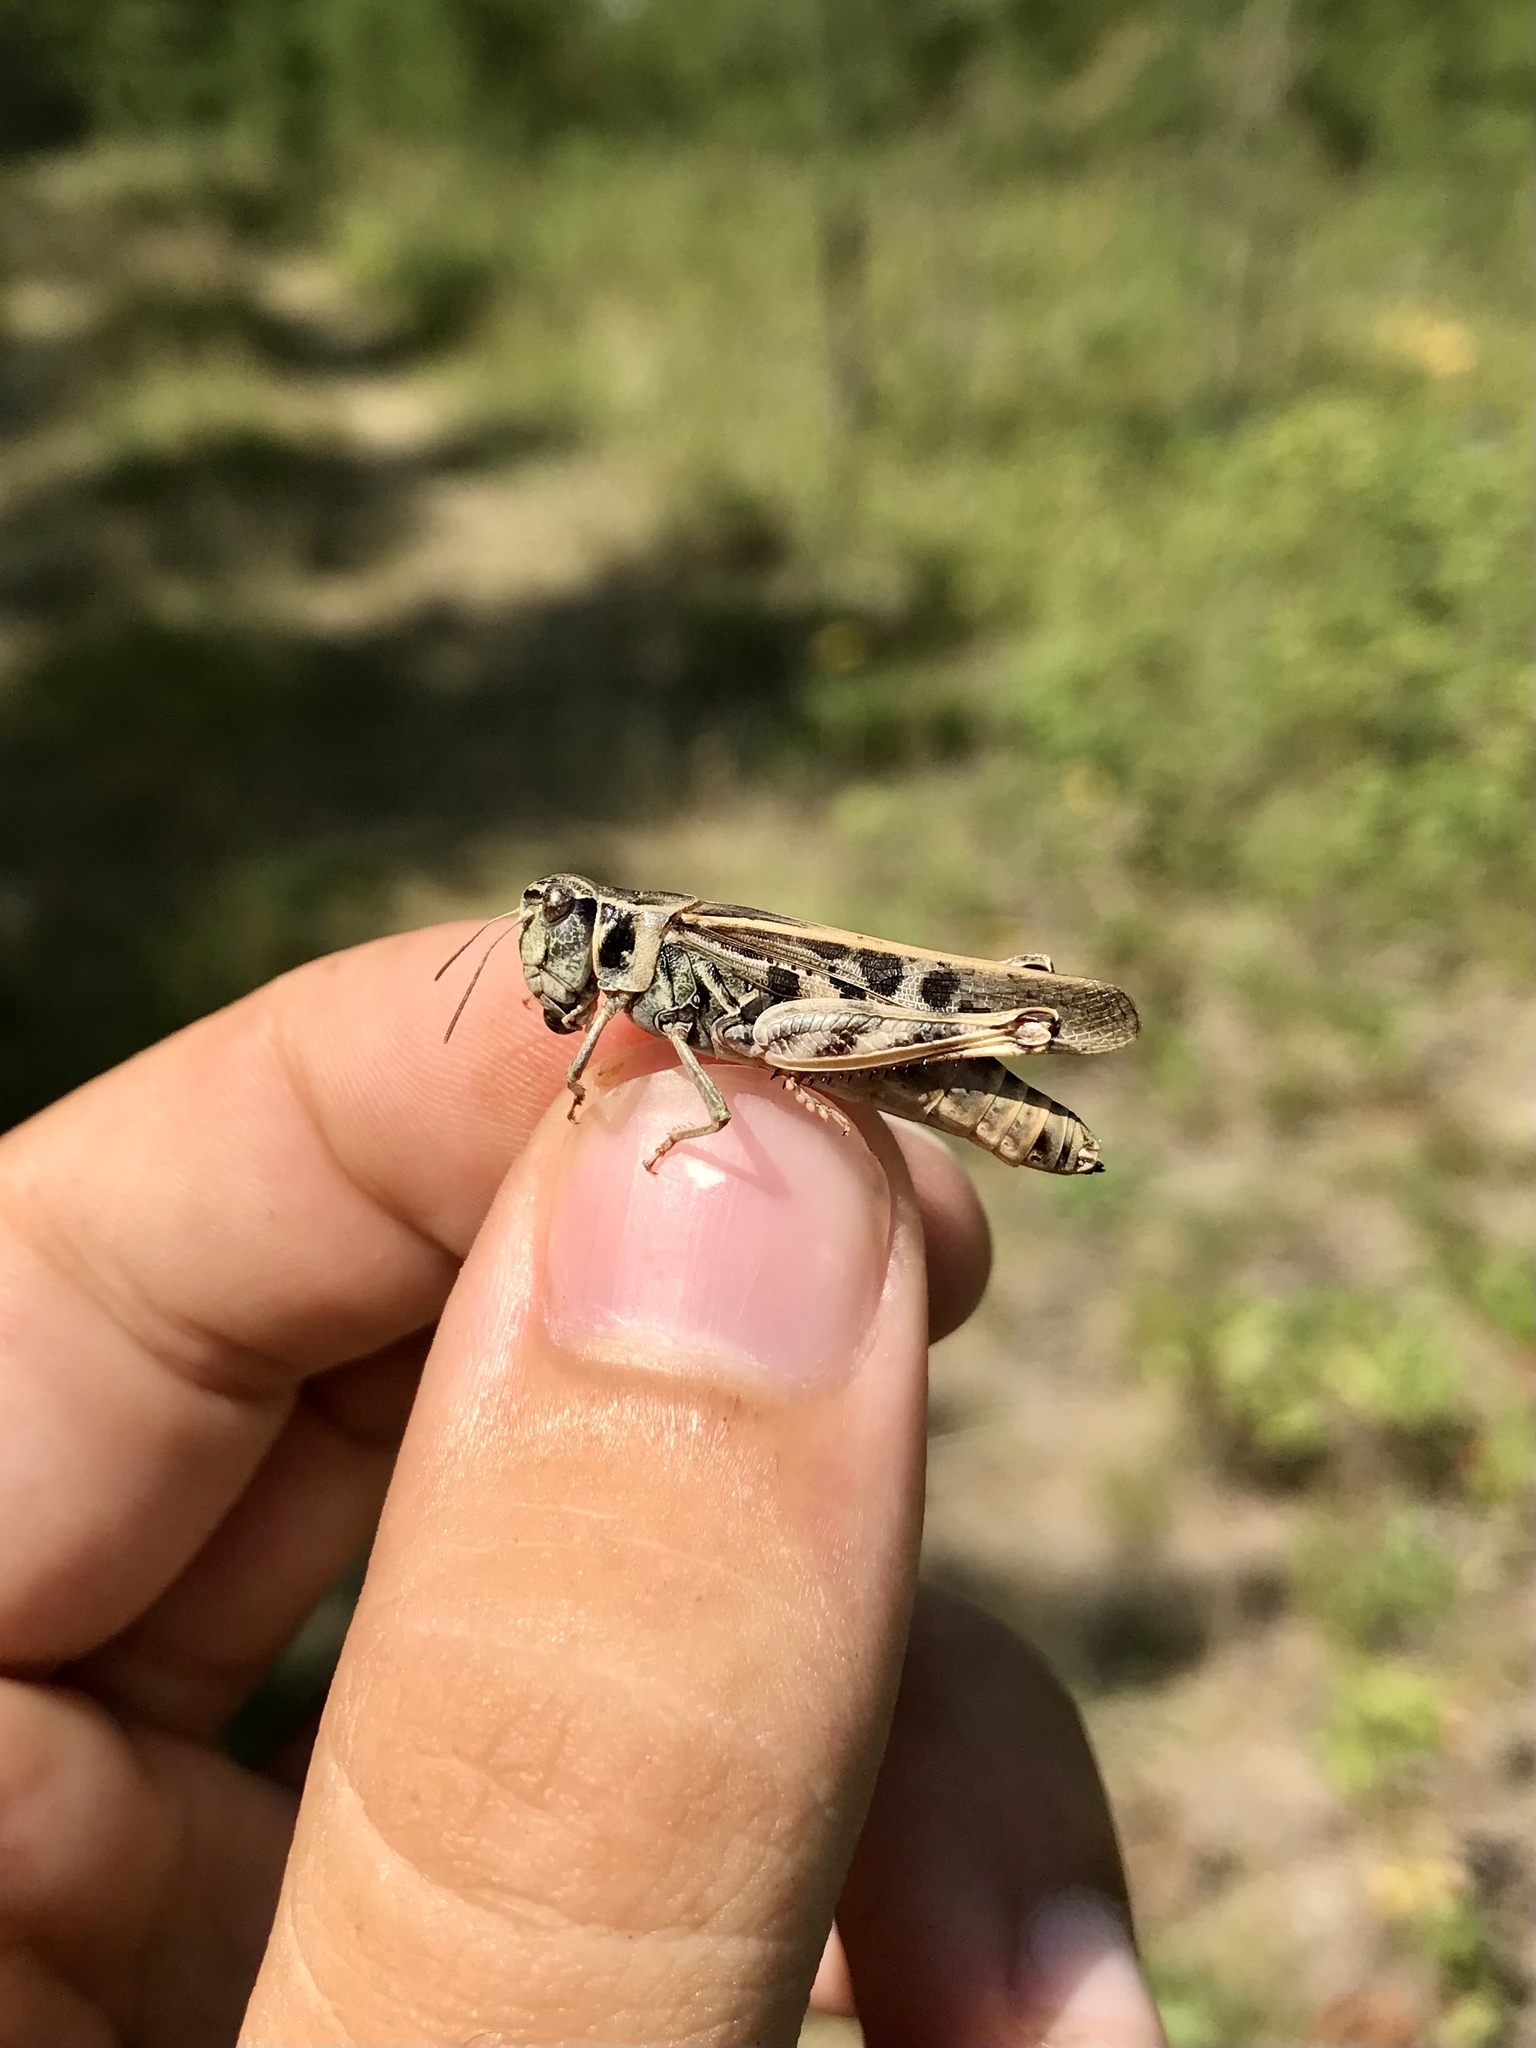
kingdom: Animalia
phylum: Arthropoda
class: Insecta
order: Orthoptera
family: Acrididae
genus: Camnula
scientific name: Camnula pellucida
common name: Clear-winged grasshopper
